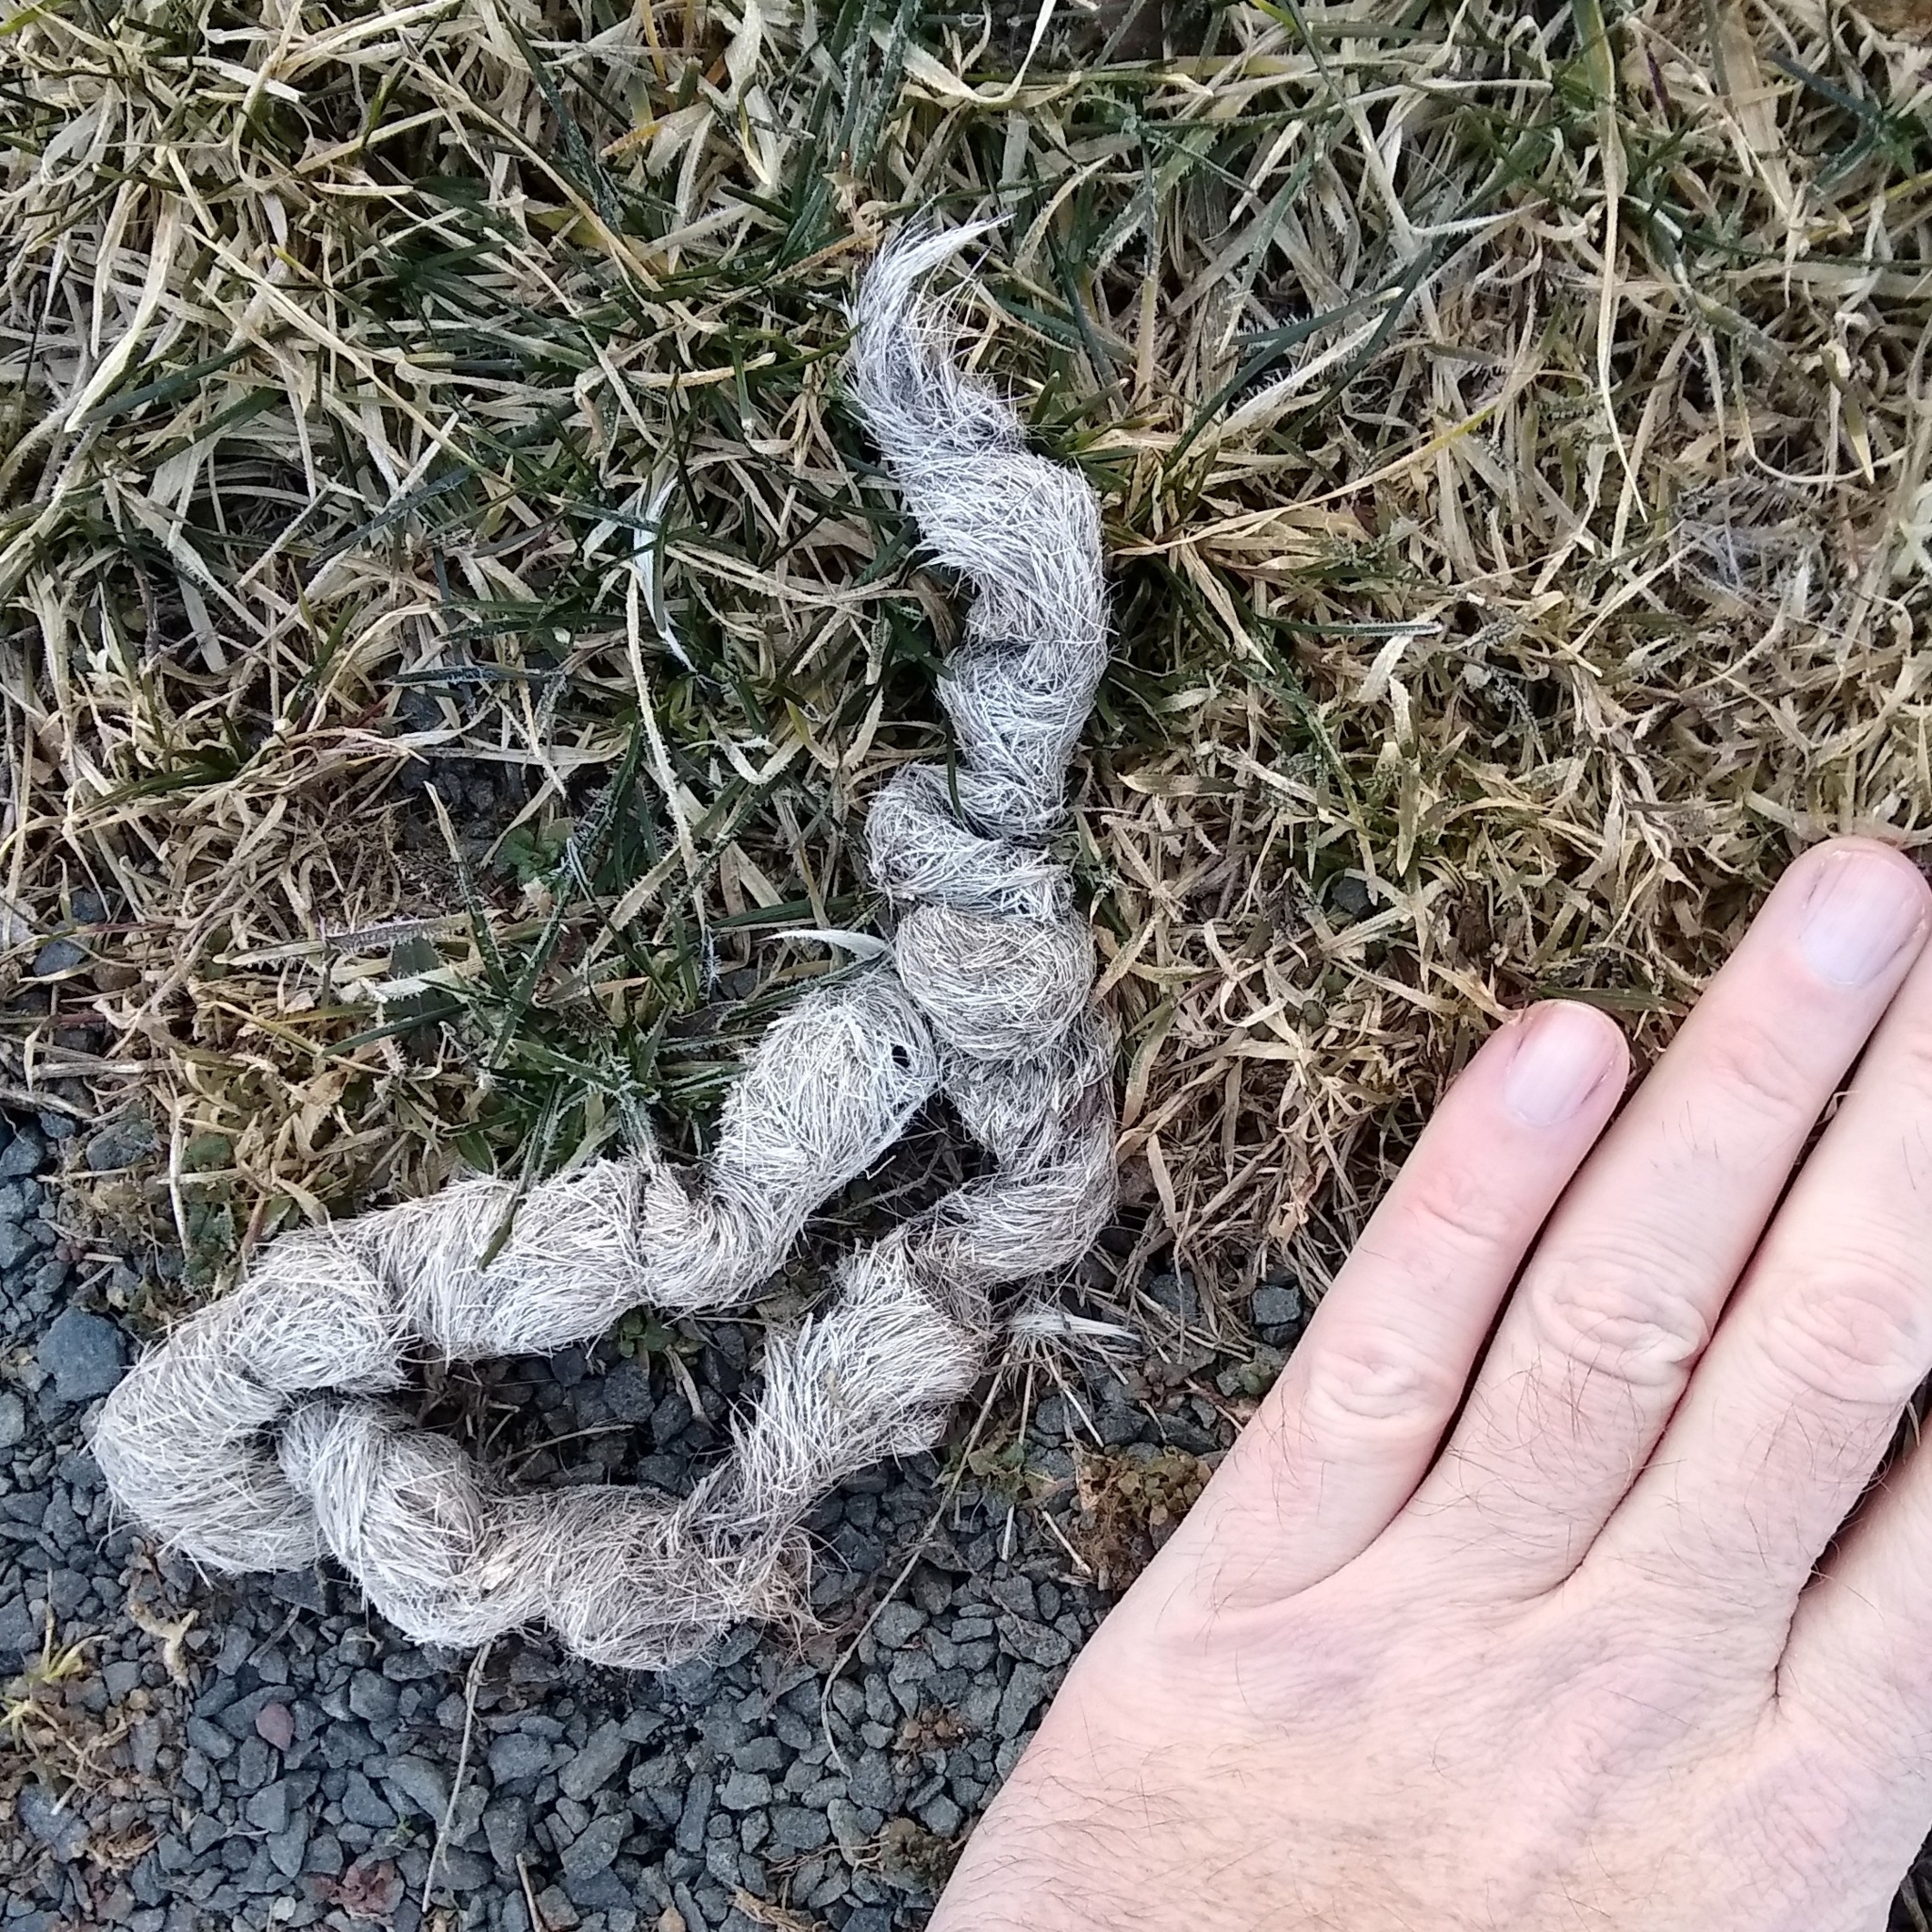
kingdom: Animalia
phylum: Chordata
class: Mammalia
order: Carnivora
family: Canidae
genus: Canis
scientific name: Canis latrans
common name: Coyote
